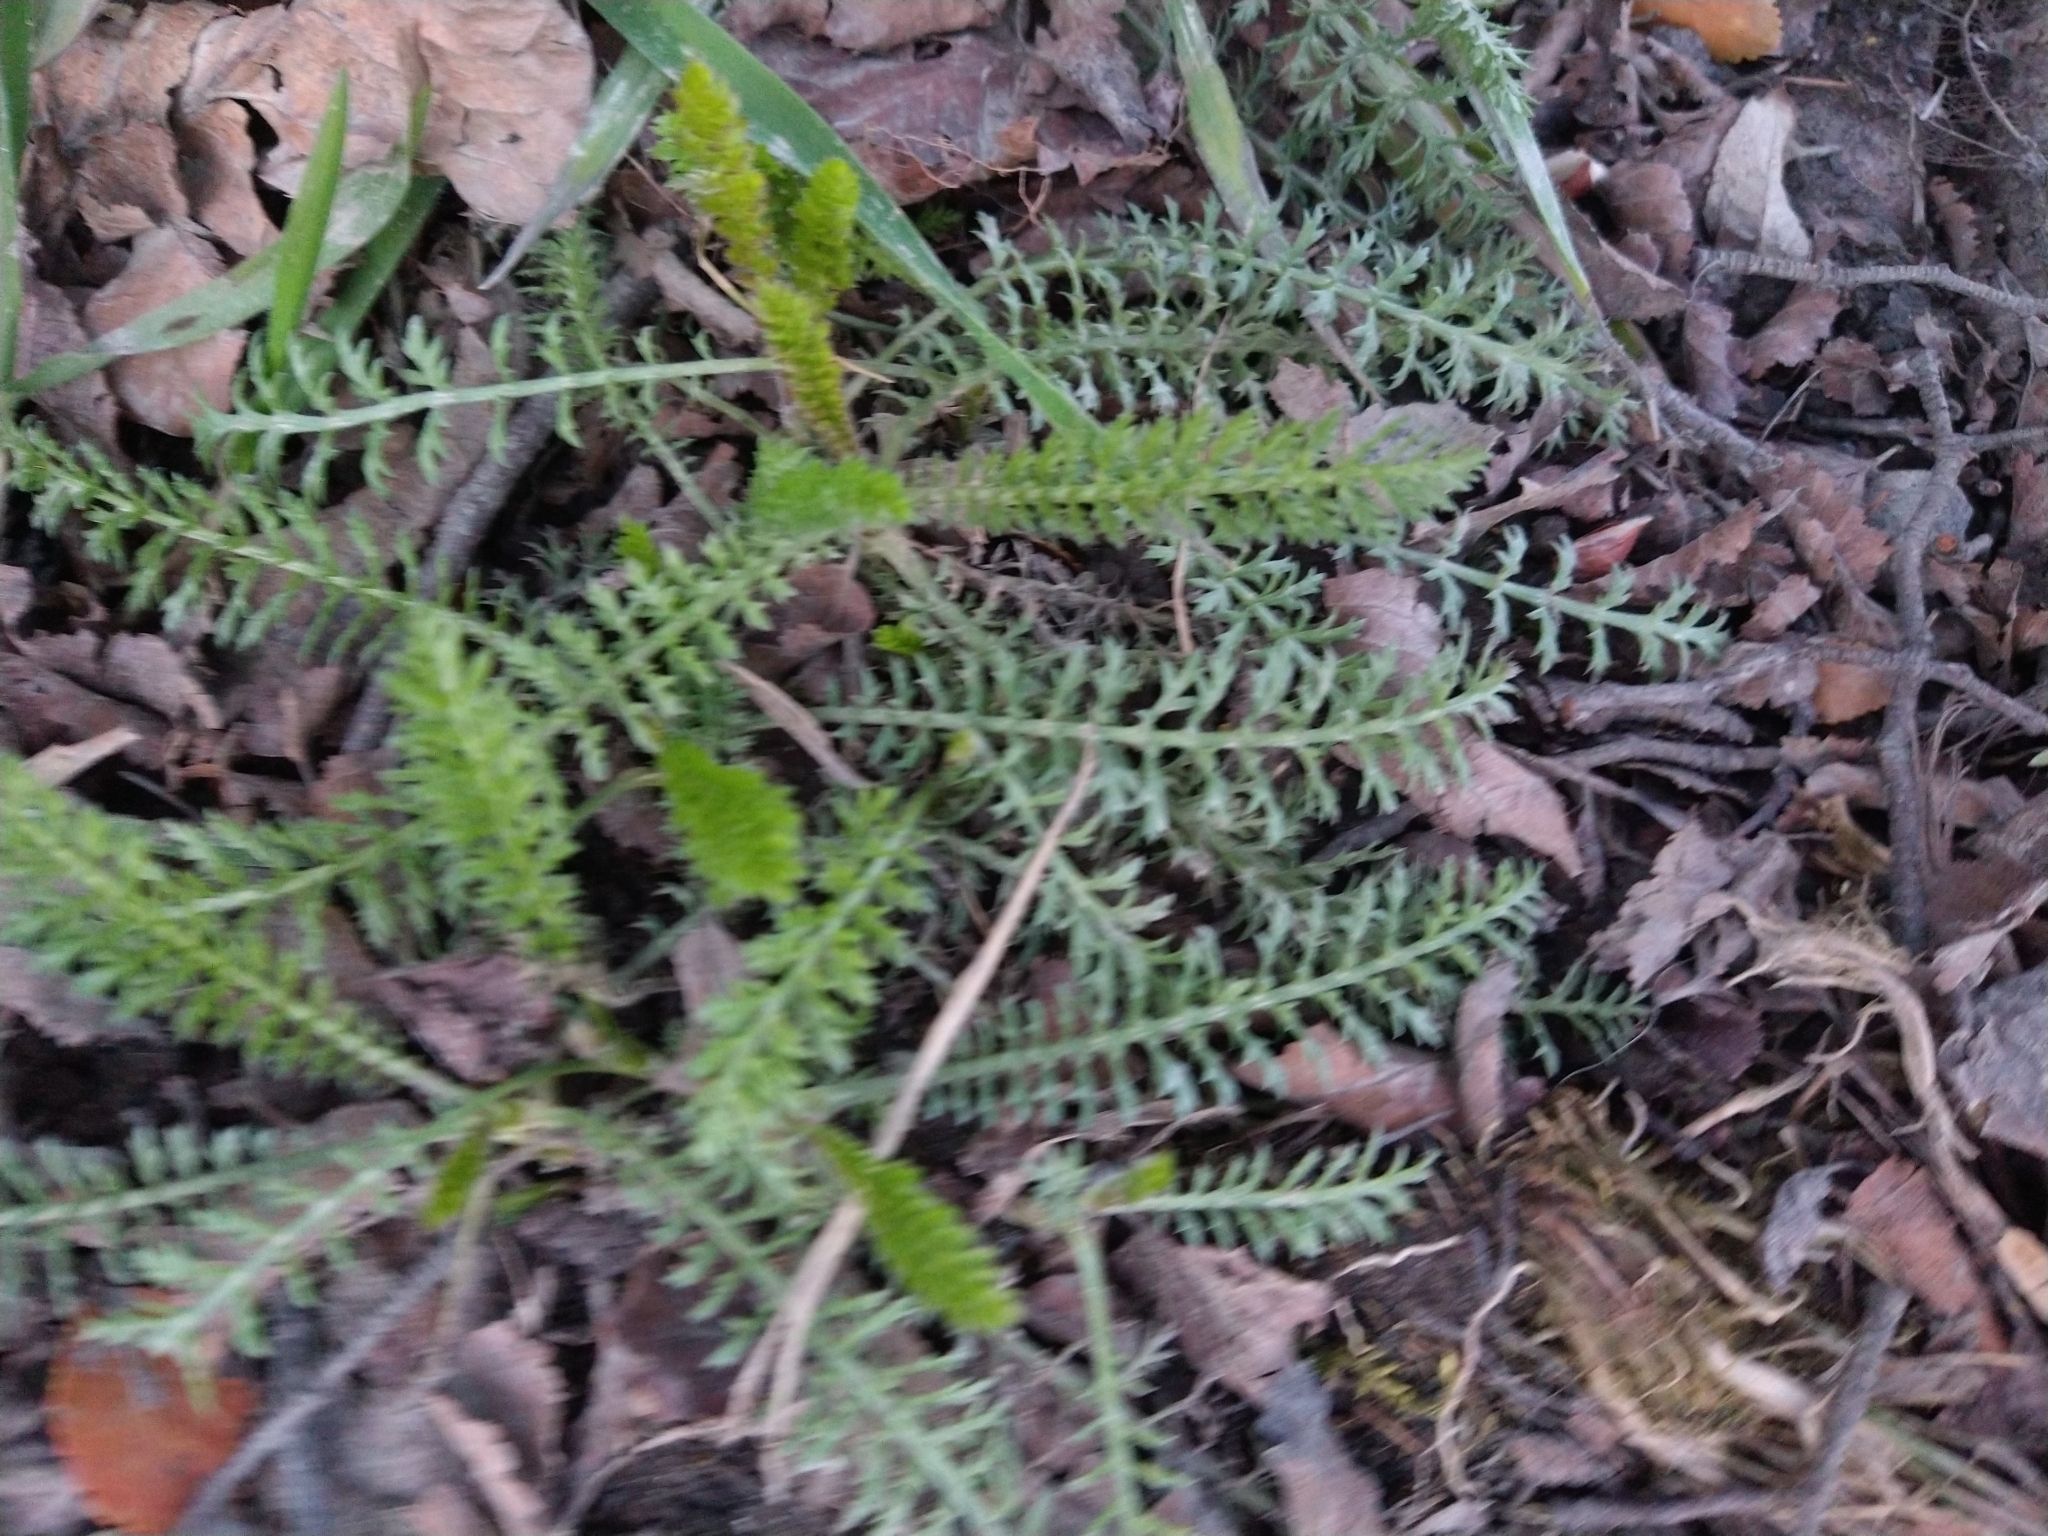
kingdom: Plantae
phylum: Tracheophyta
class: Magnoliopsida
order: Asterales
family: Asteraceae
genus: Achillea
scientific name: Achillea millefolium
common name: Yarrow
